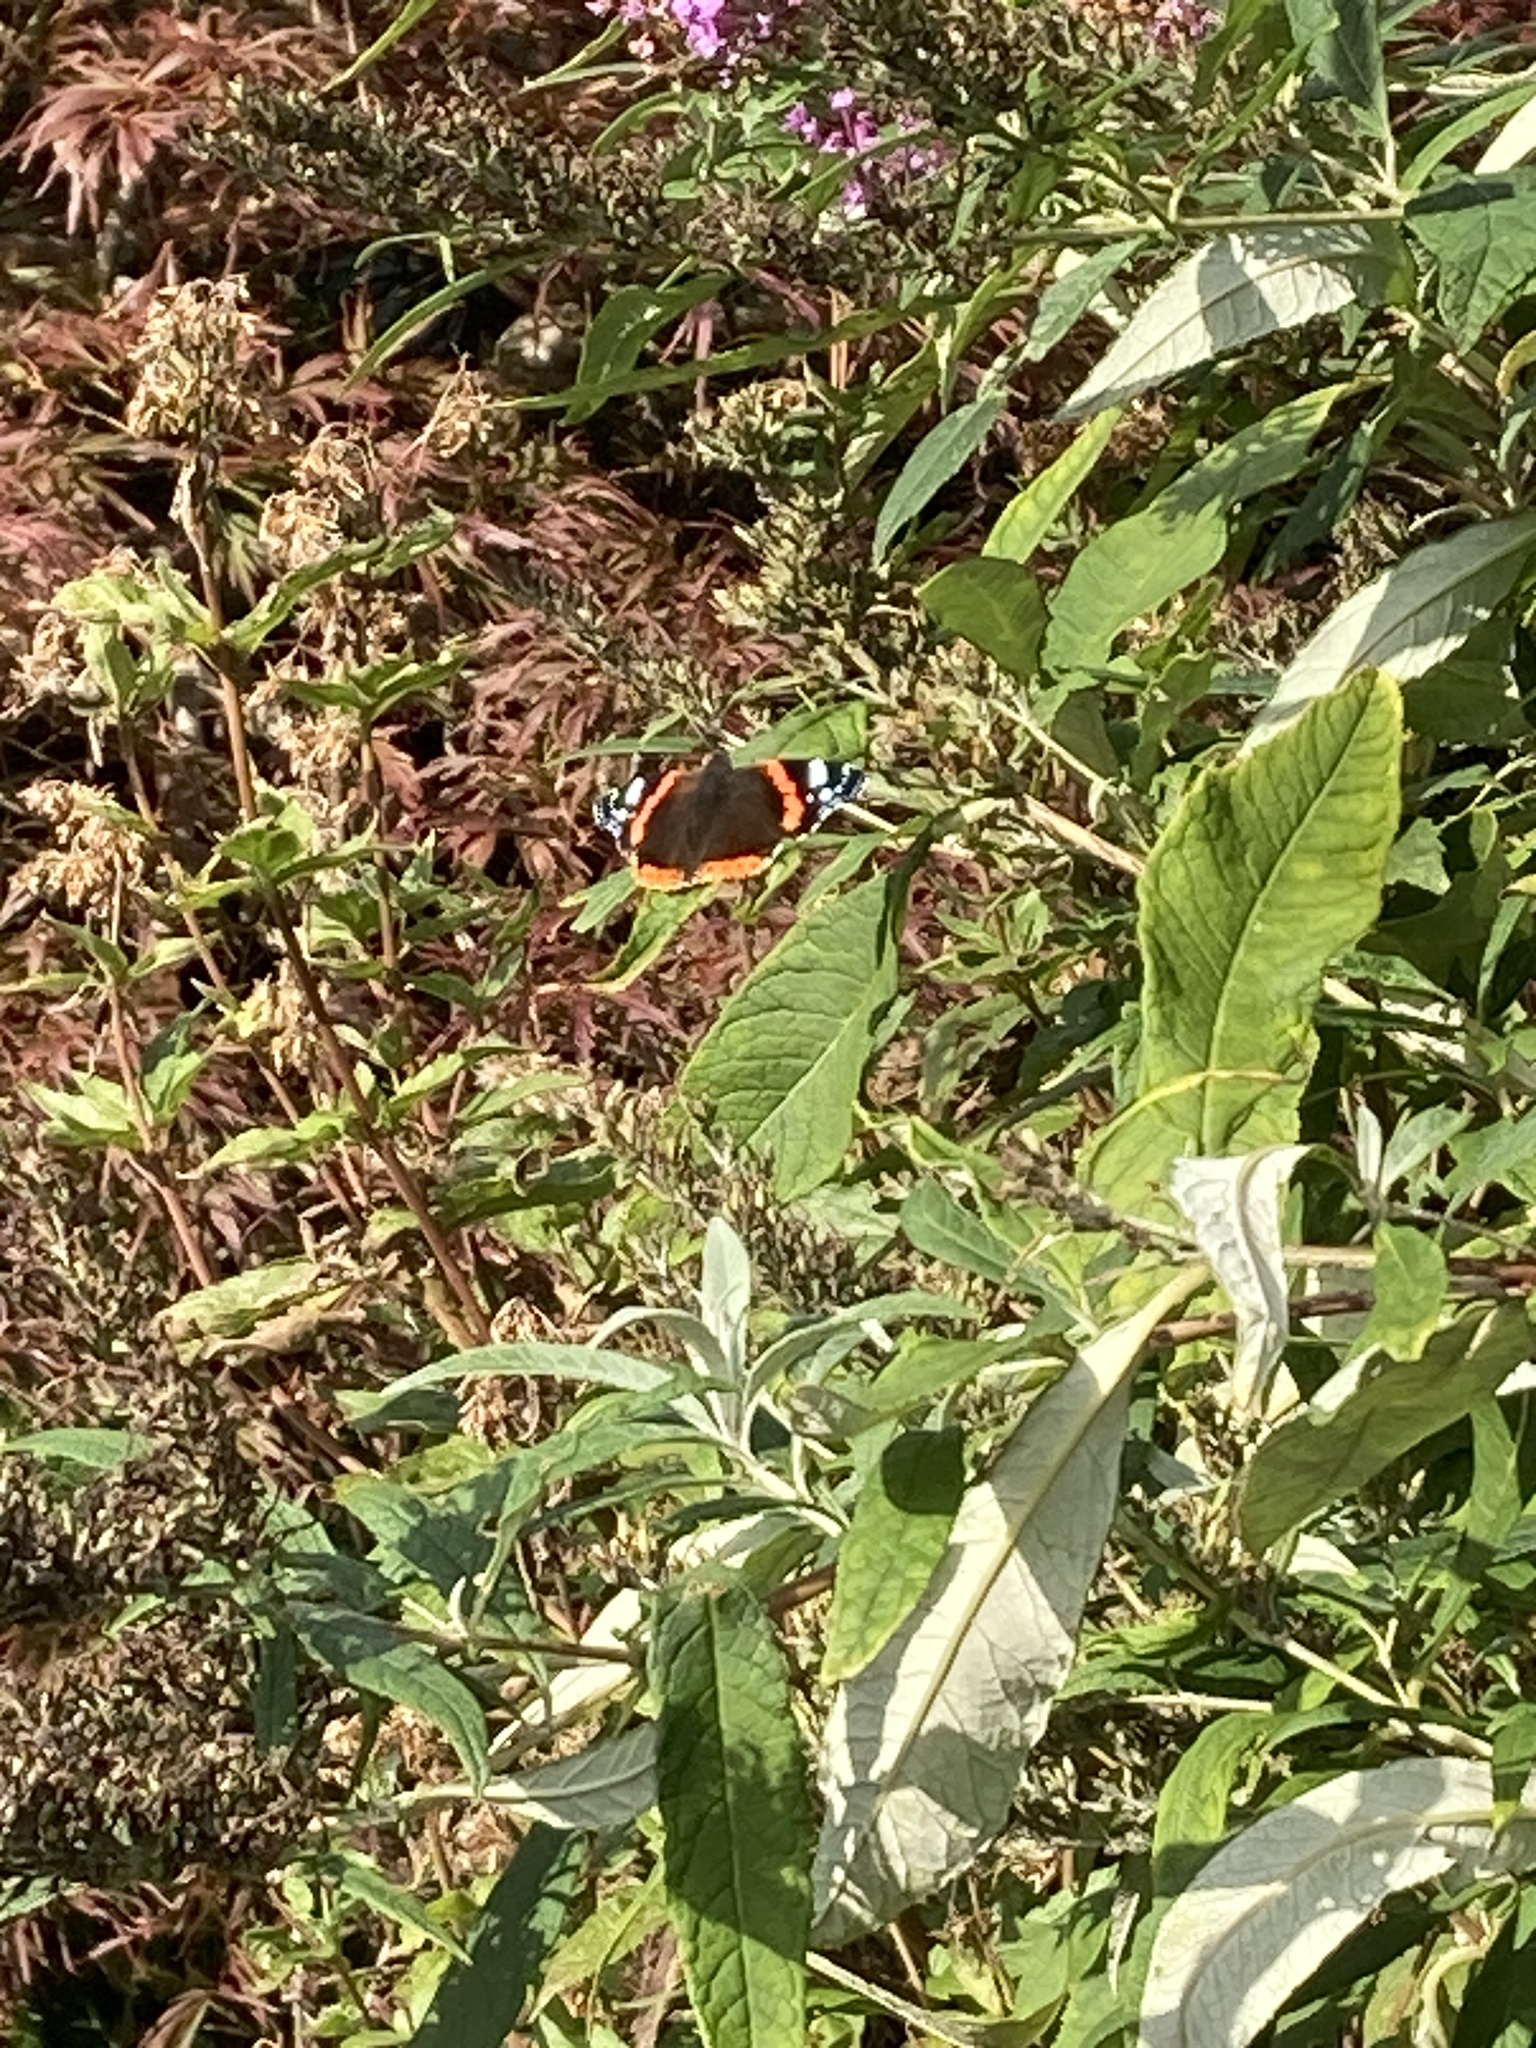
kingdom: Animalia
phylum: Arthropoda
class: Insecta
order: Lepidoptera
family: Nymphalidae
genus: Vanessa
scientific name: Vanessa atalanta
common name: Red admiral
